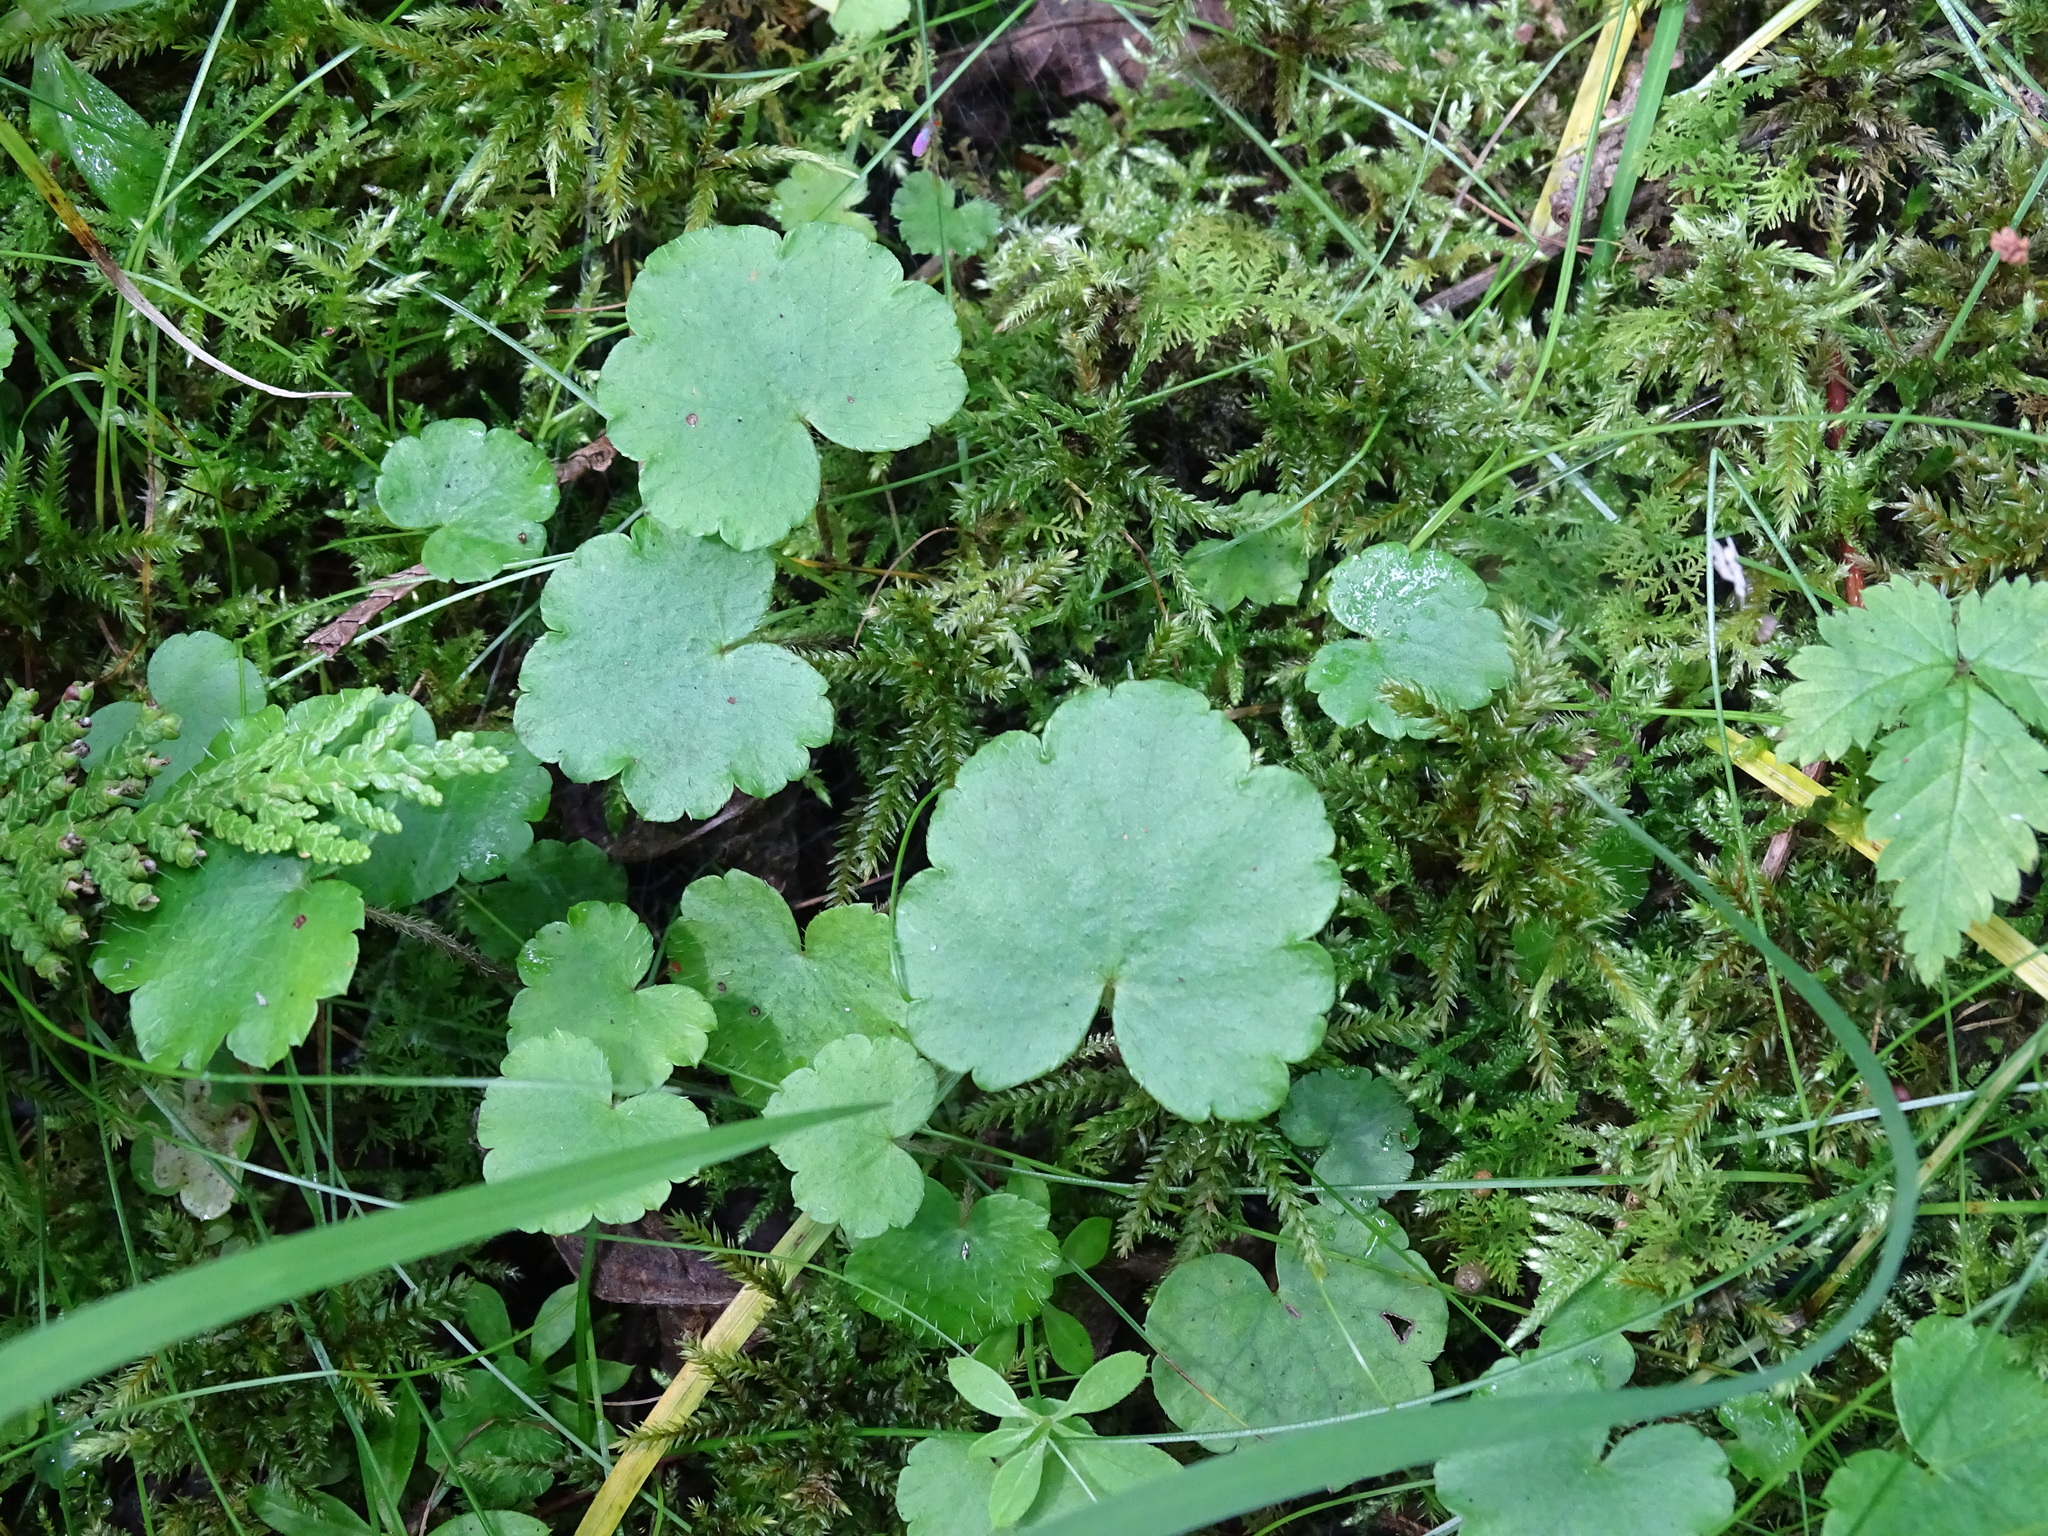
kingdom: Plantae
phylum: Tracheophyta
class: Magnoliopsida
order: Saxifragales
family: Saxifragaceae
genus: Mitella
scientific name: Mitella nuda
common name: Bare-stemmed bishop's-cap
